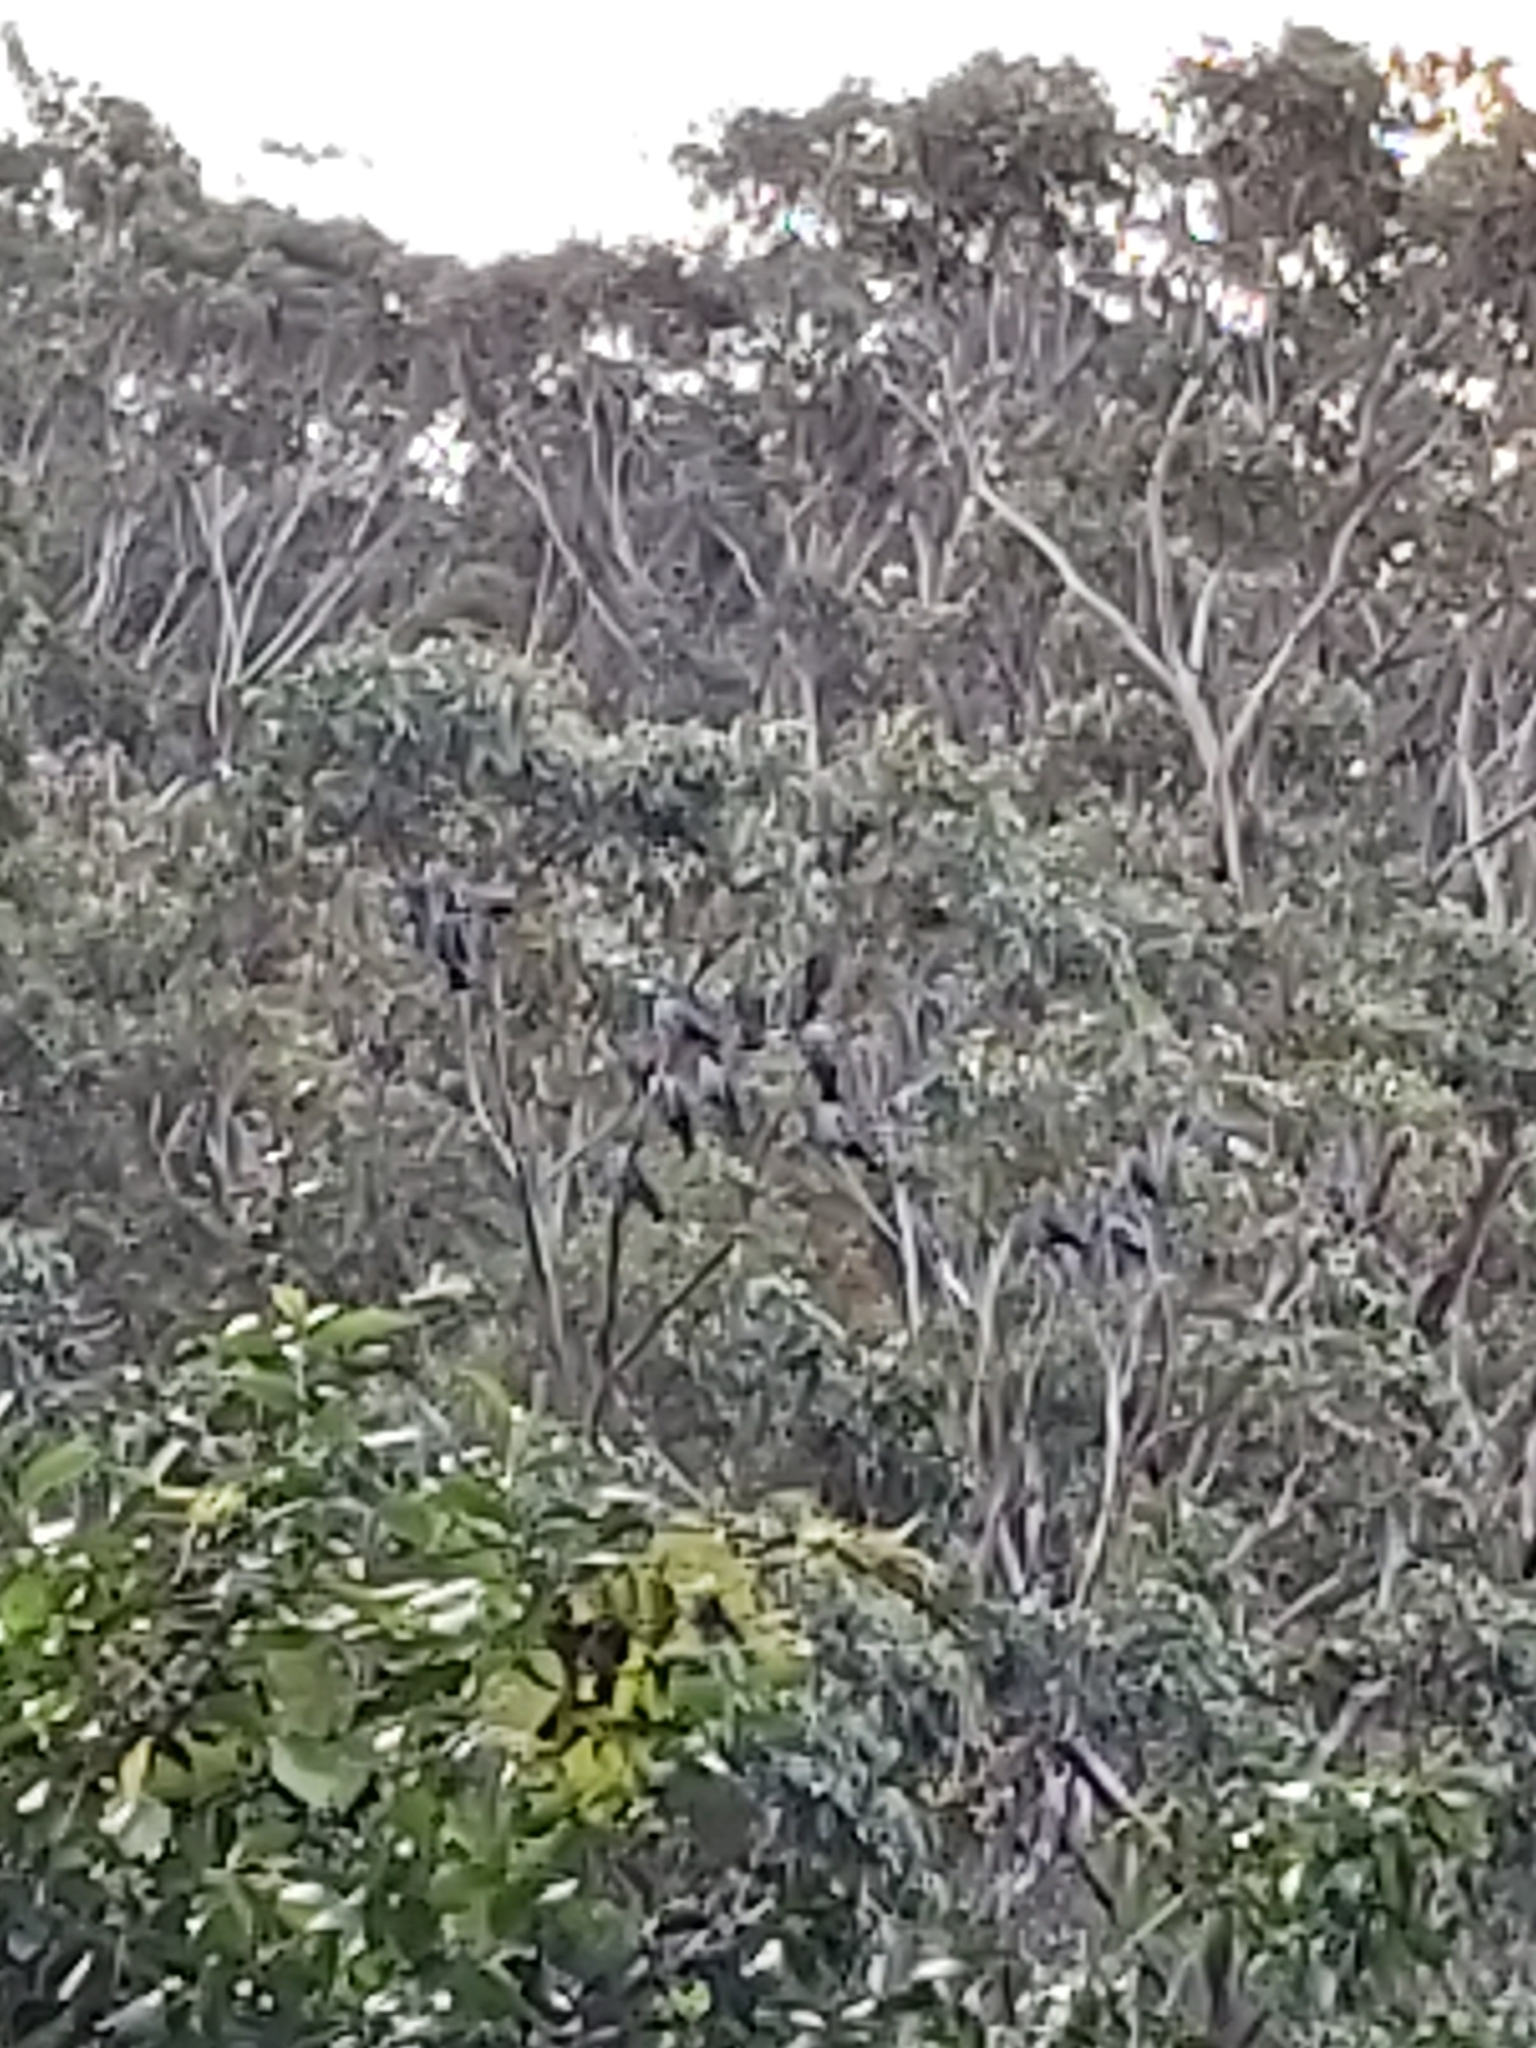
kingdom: Animalia
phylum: Chordata
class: Aves
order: Columbiformes
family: Columbidae
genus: Lopholaimus
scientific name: Lopholaimus antarcticus
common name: Topknot pigeon
